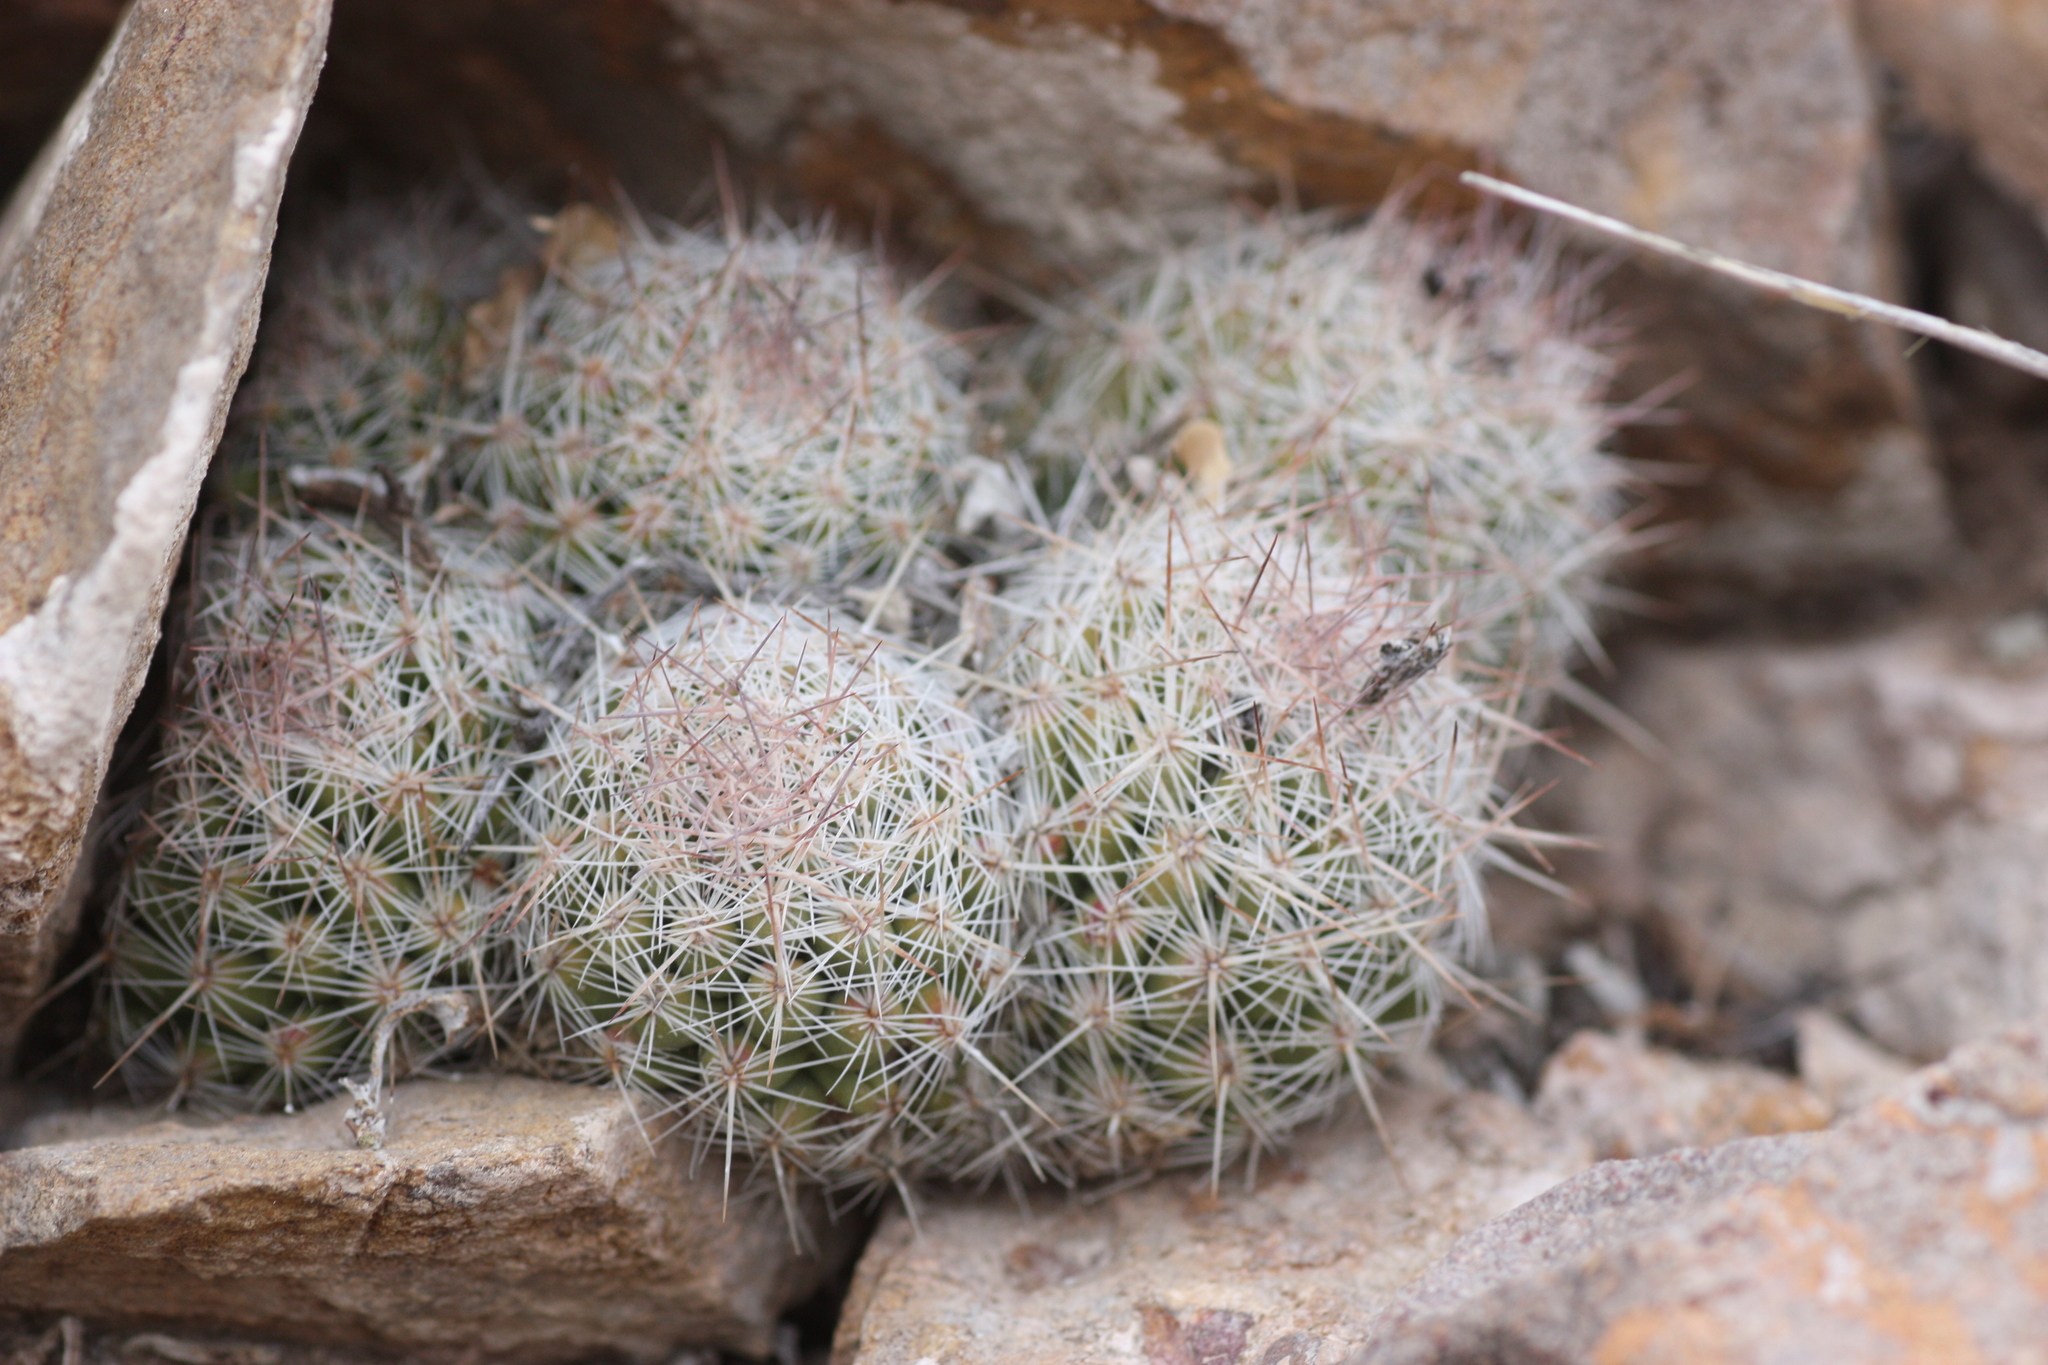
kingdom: Plantae
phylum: Tracheophyta
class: Magnoliopsida
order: Caryophyllales
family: Cactaceae
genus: Pelecyphora
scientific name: Pelecyphora tuberculosa
